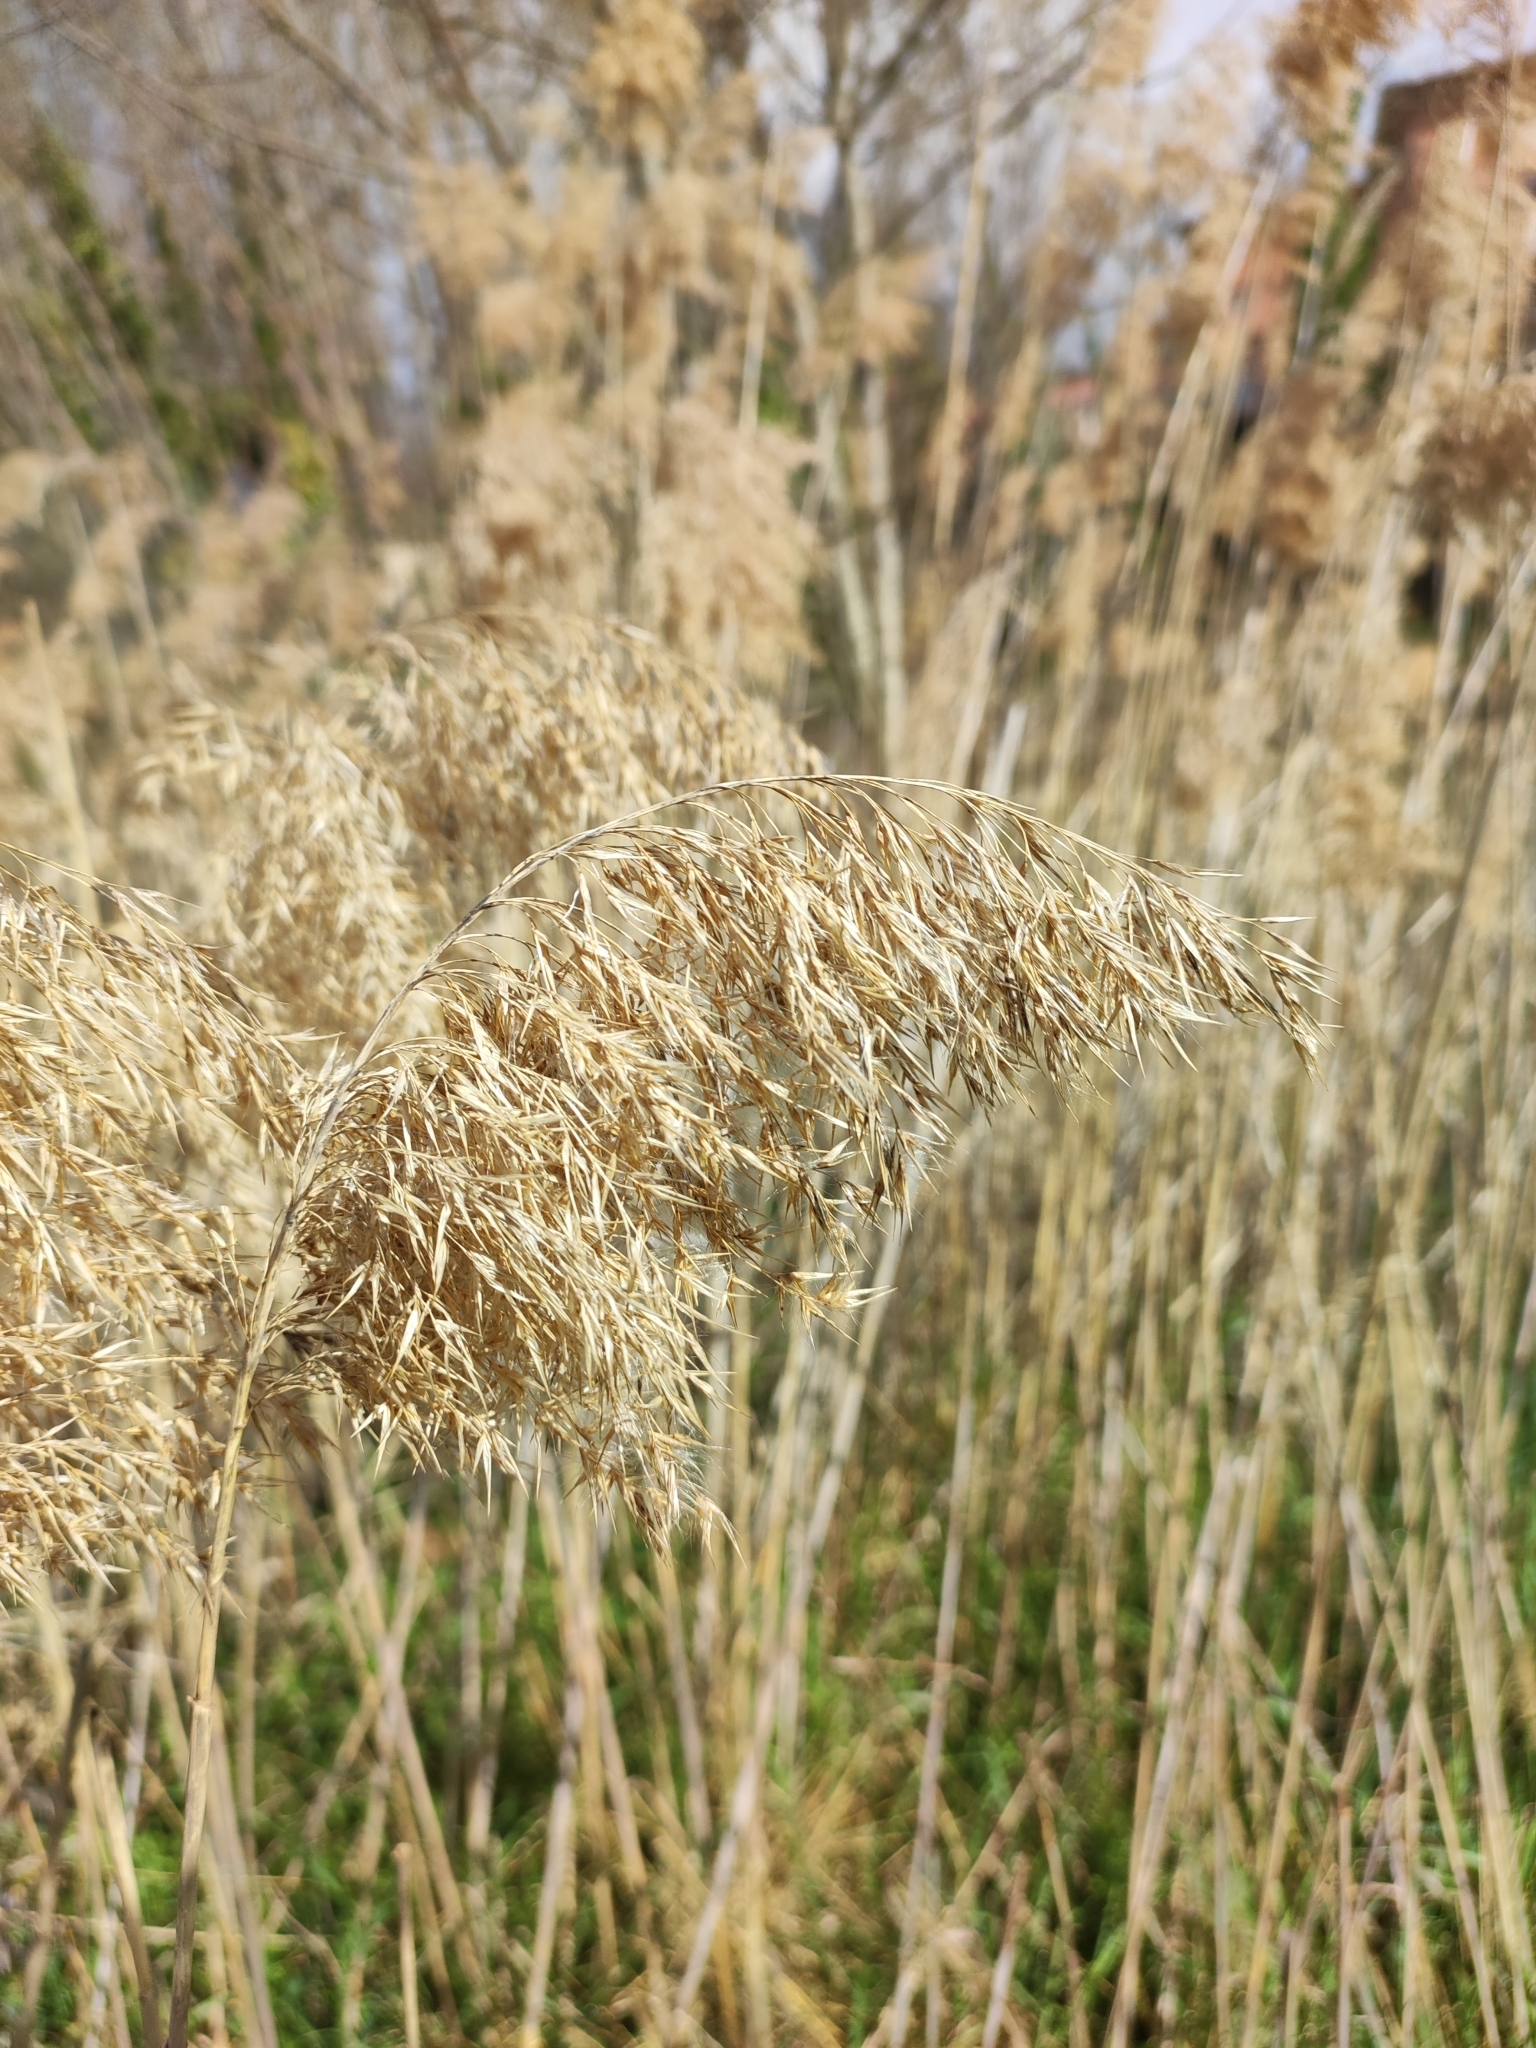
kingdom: Plantae
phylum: Tracheophyta
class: Liliopsida
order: Poales
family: Poaceae
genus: Phragmites
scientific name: Phragmites australis
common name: Common reed
